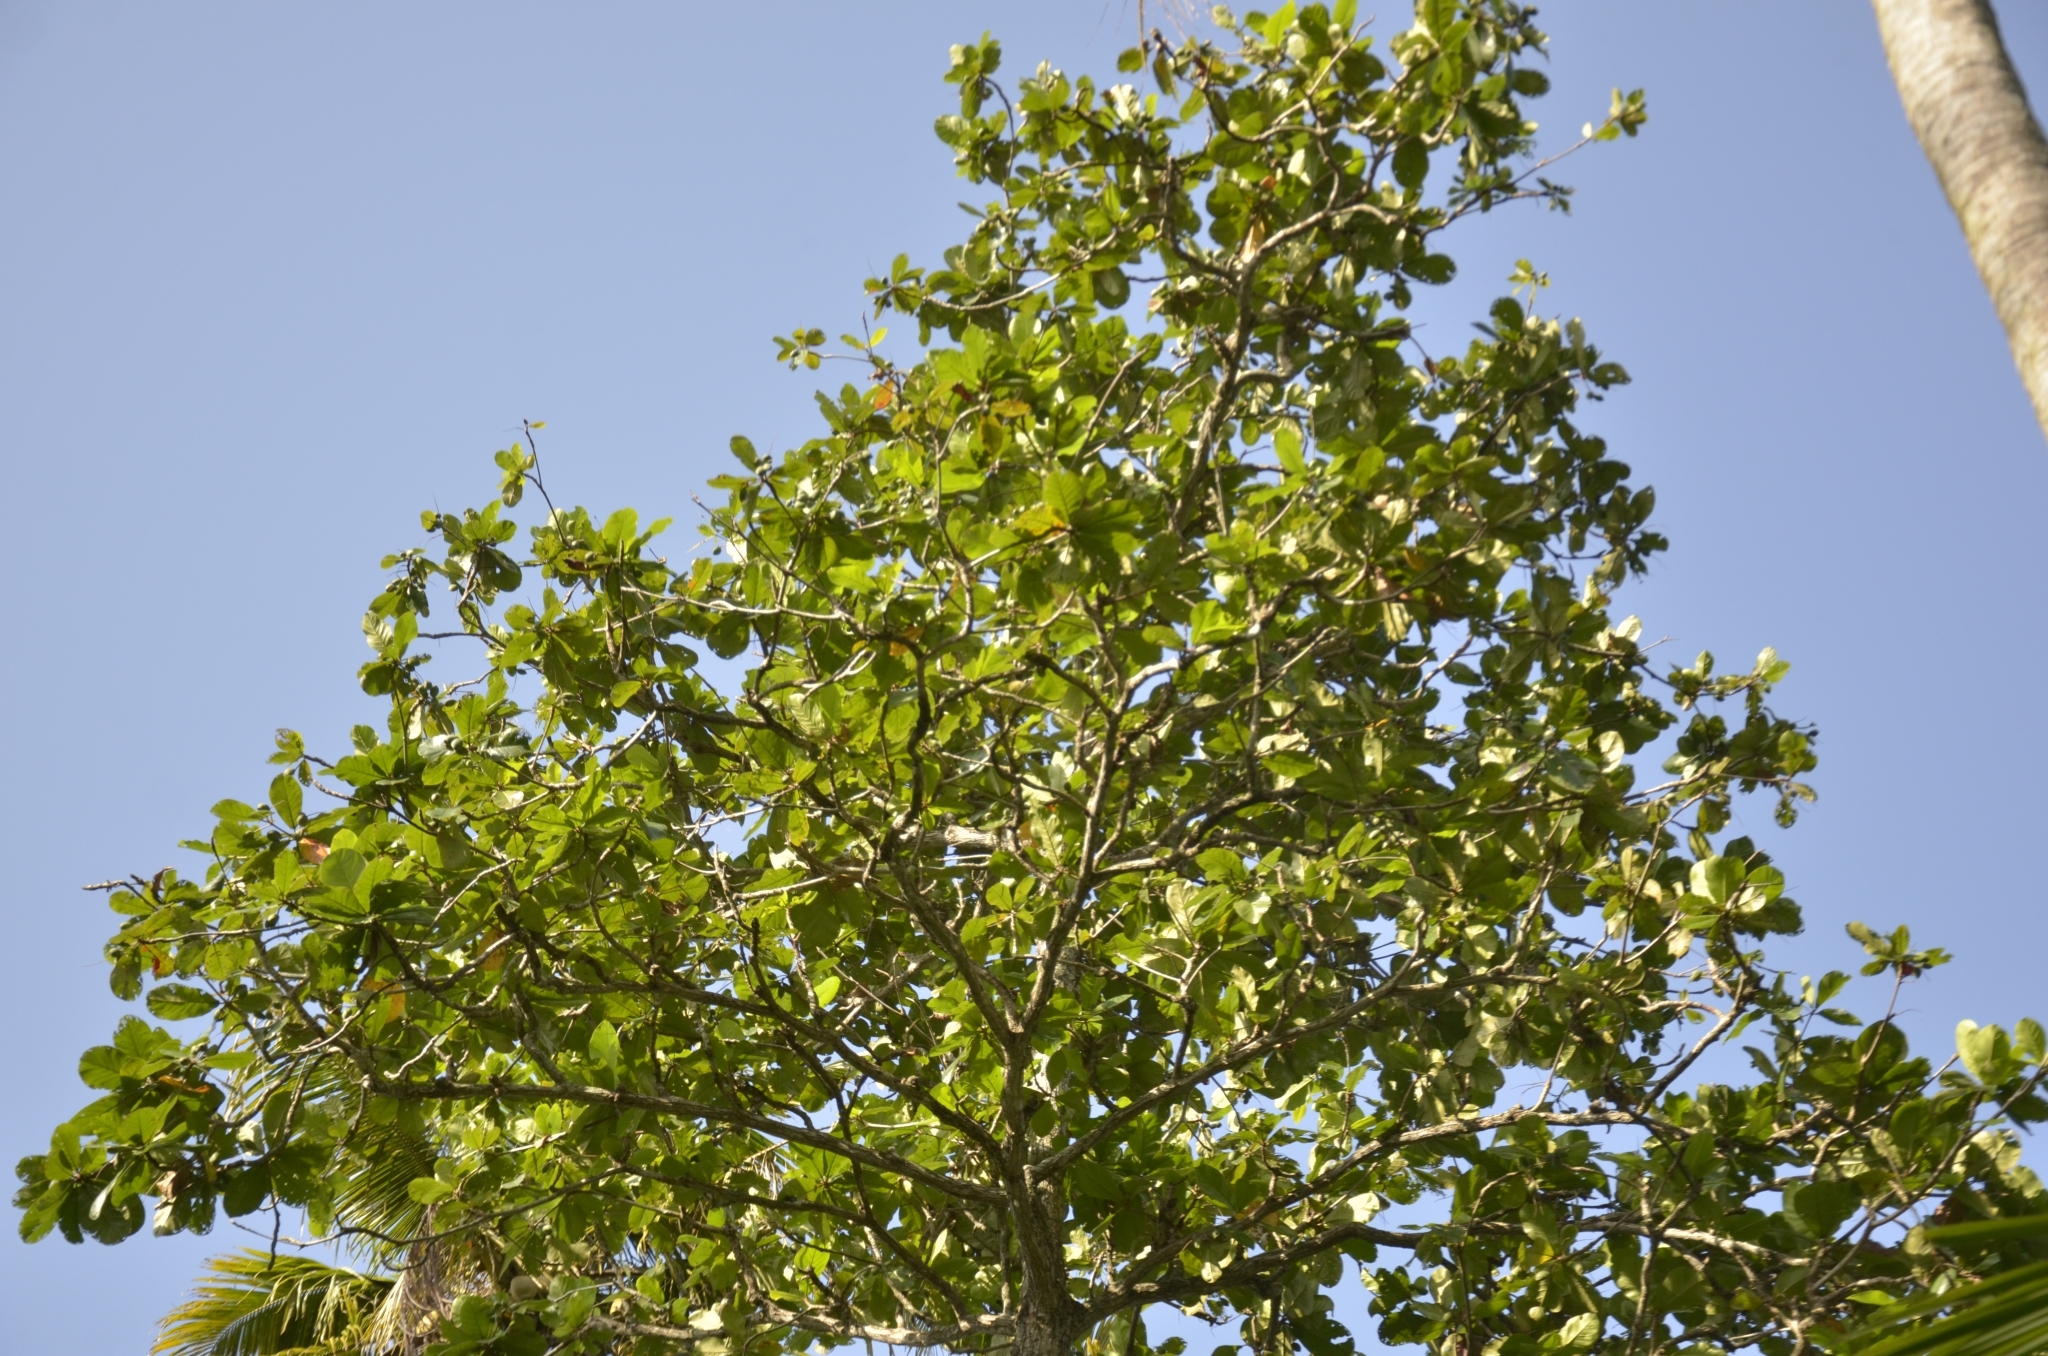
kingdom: Plantae
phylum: Tracheophyta
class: Magnoliopsida
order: Myrtales
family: Combretaceae
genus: Terminalia
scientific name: Terminalia catappa
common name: Tropical almond
